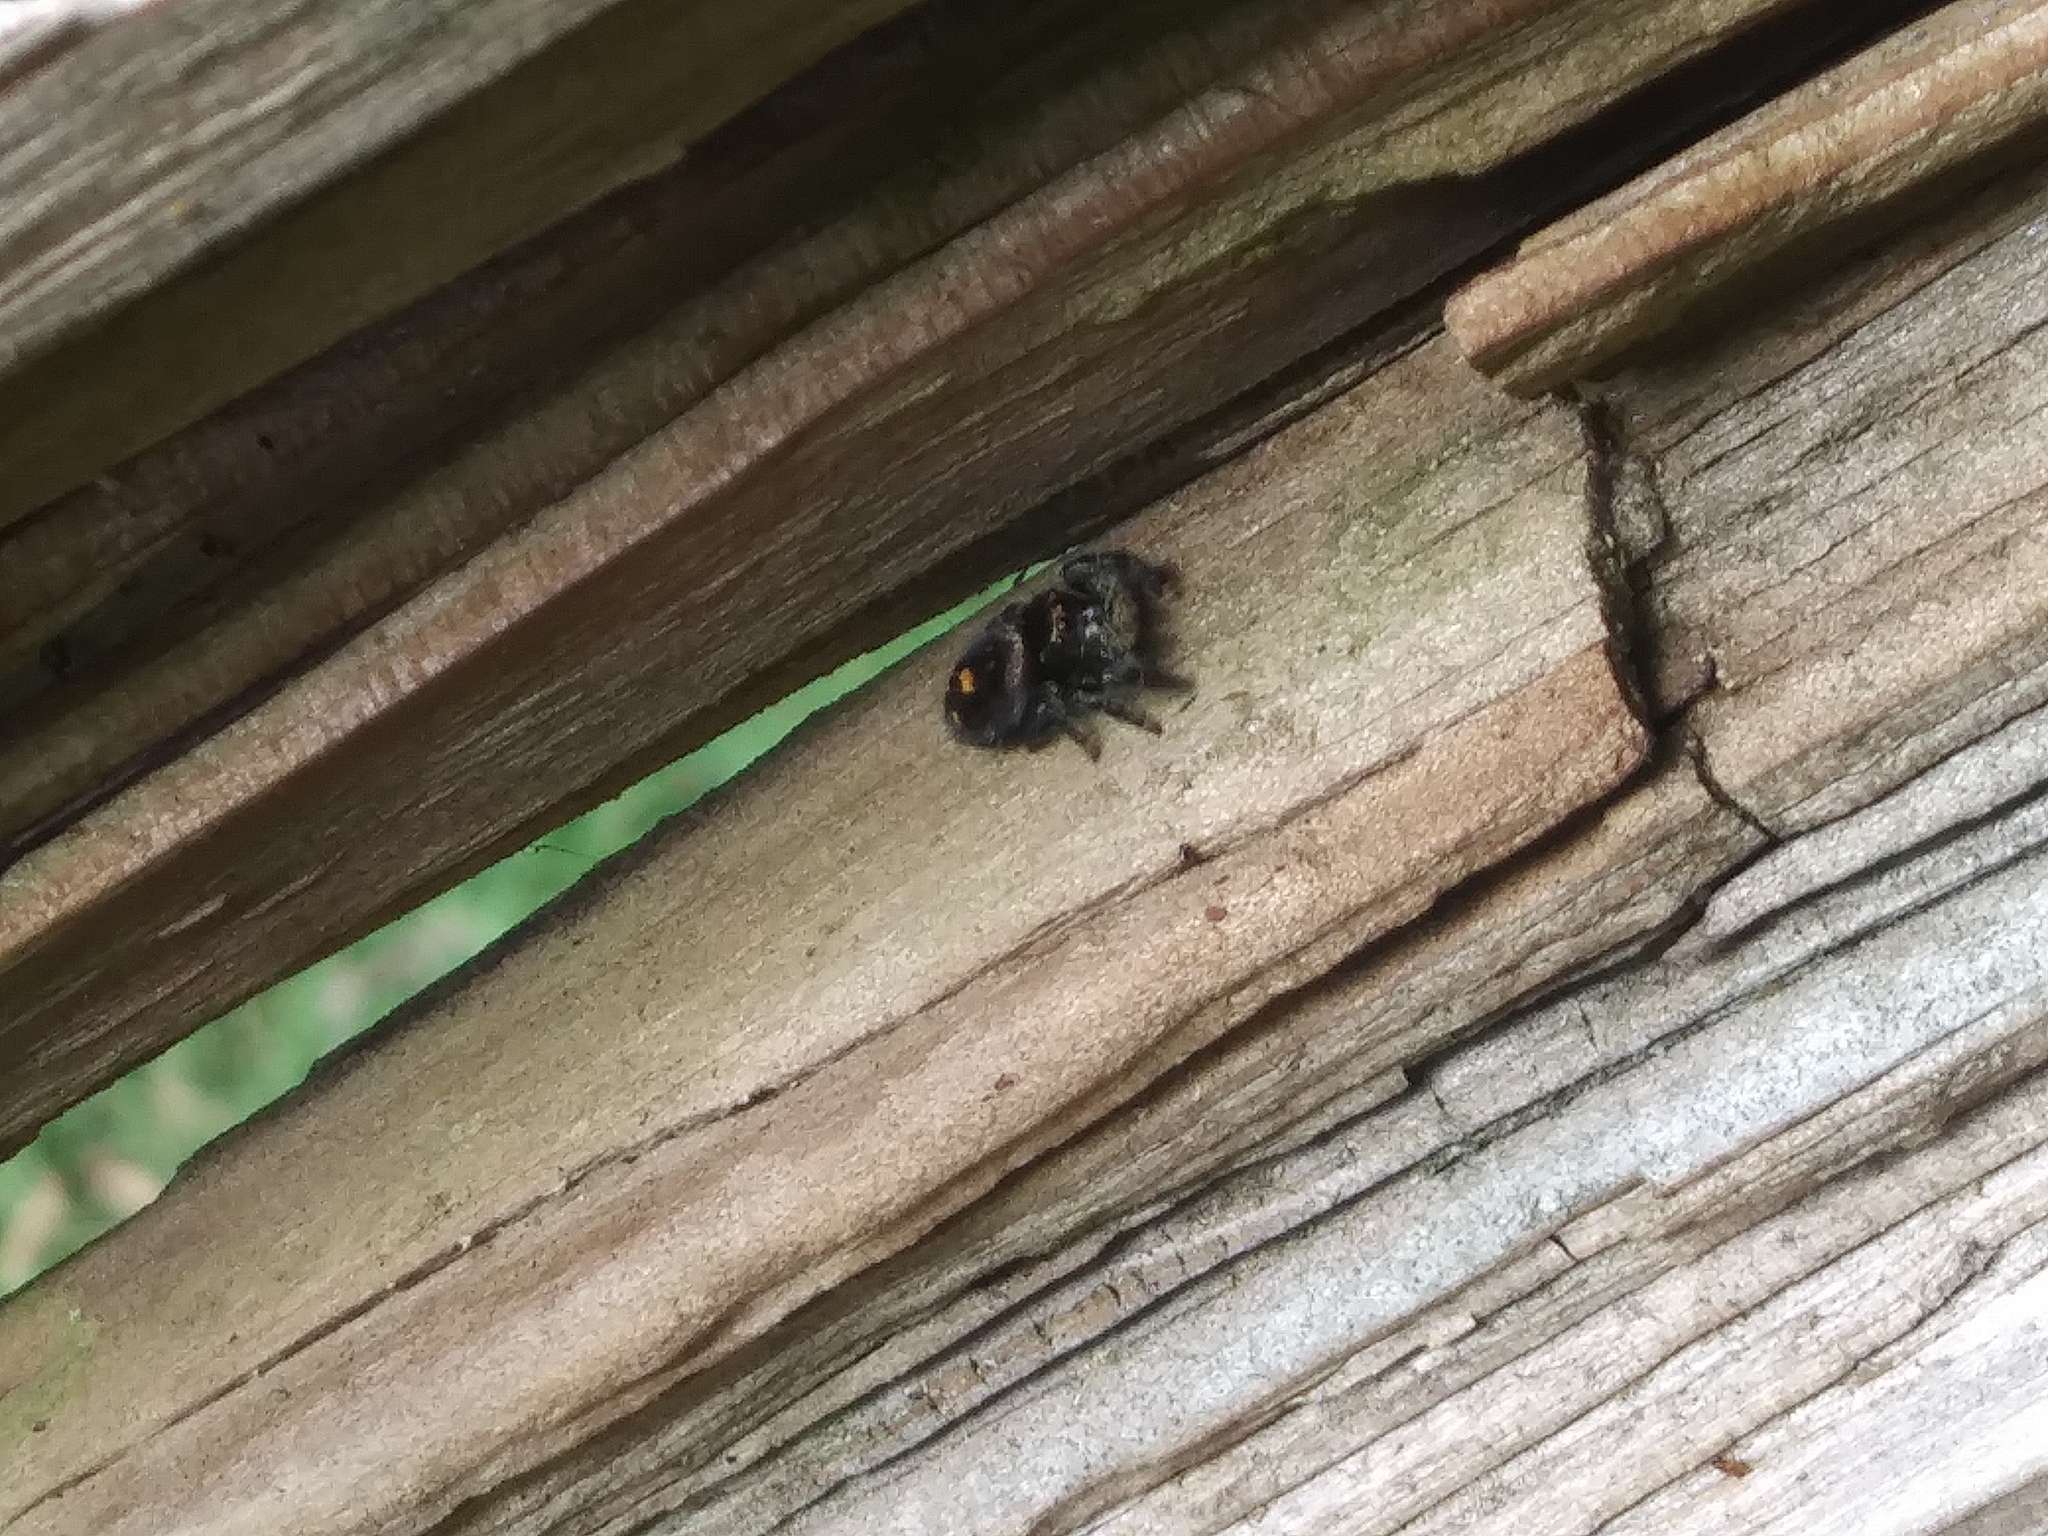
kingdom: Animalia
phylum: Arthropoda
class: Arachnida
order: Araneae
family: Salticidae
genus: Phidippus
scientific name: Phidippus audax
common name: Bold jumper
